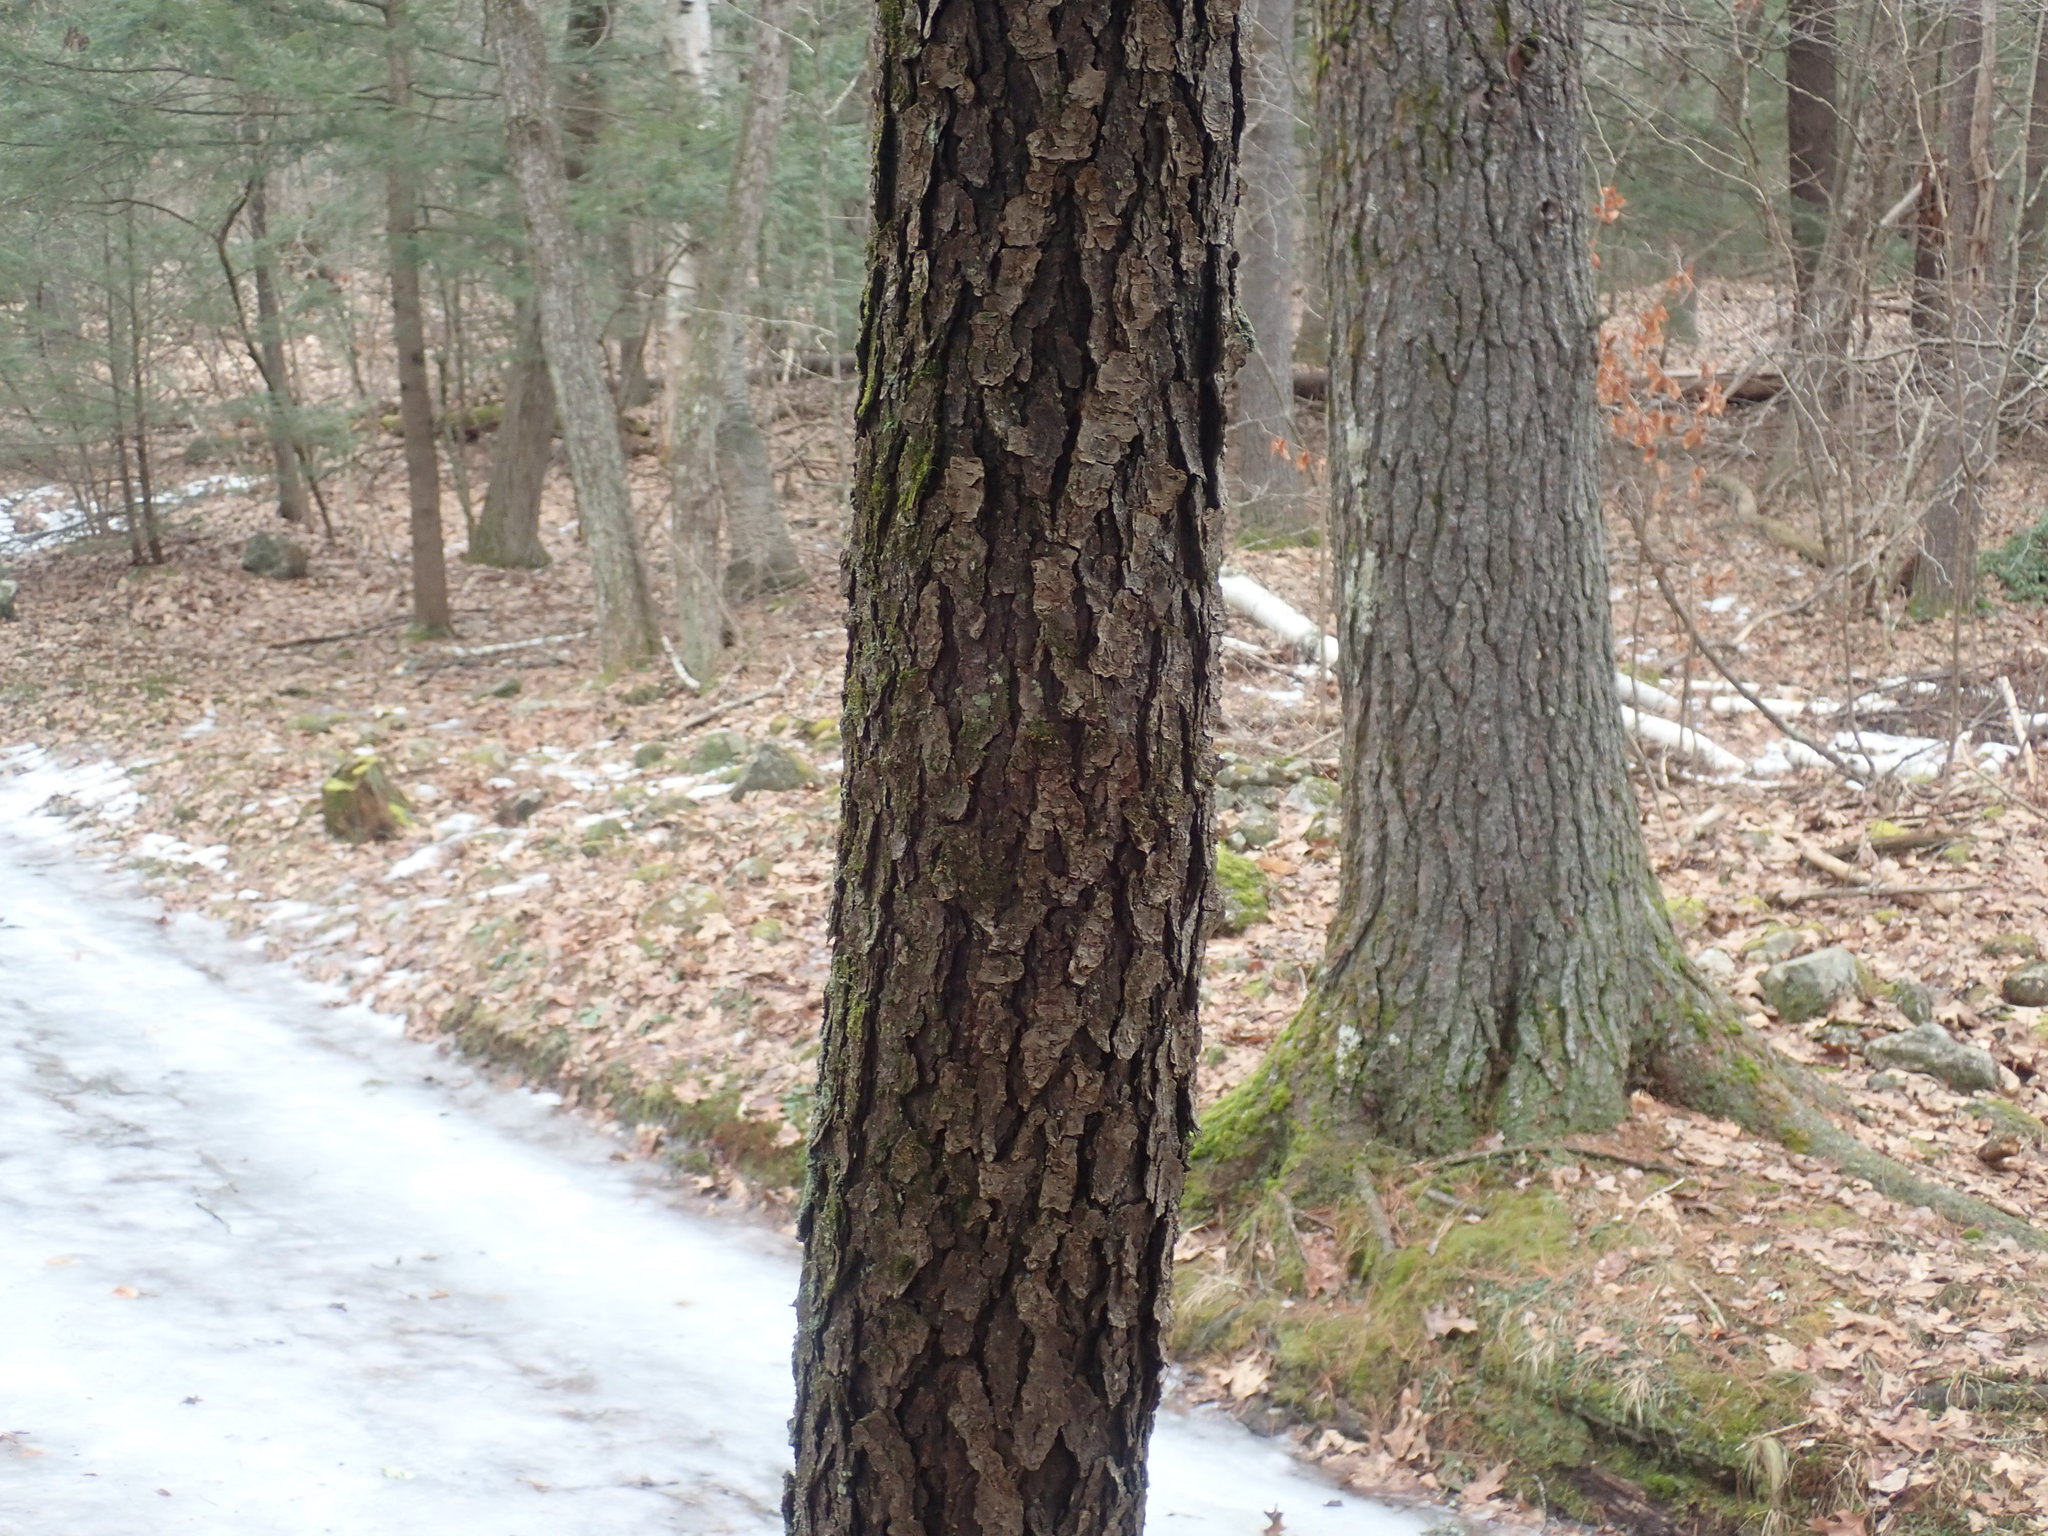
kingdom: Plantae
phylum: Tracheophyta
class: Magnoliopsida
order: Rosales
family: Rosaceae
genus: Prunus
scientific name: Prunus serotina
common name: Black cherry
